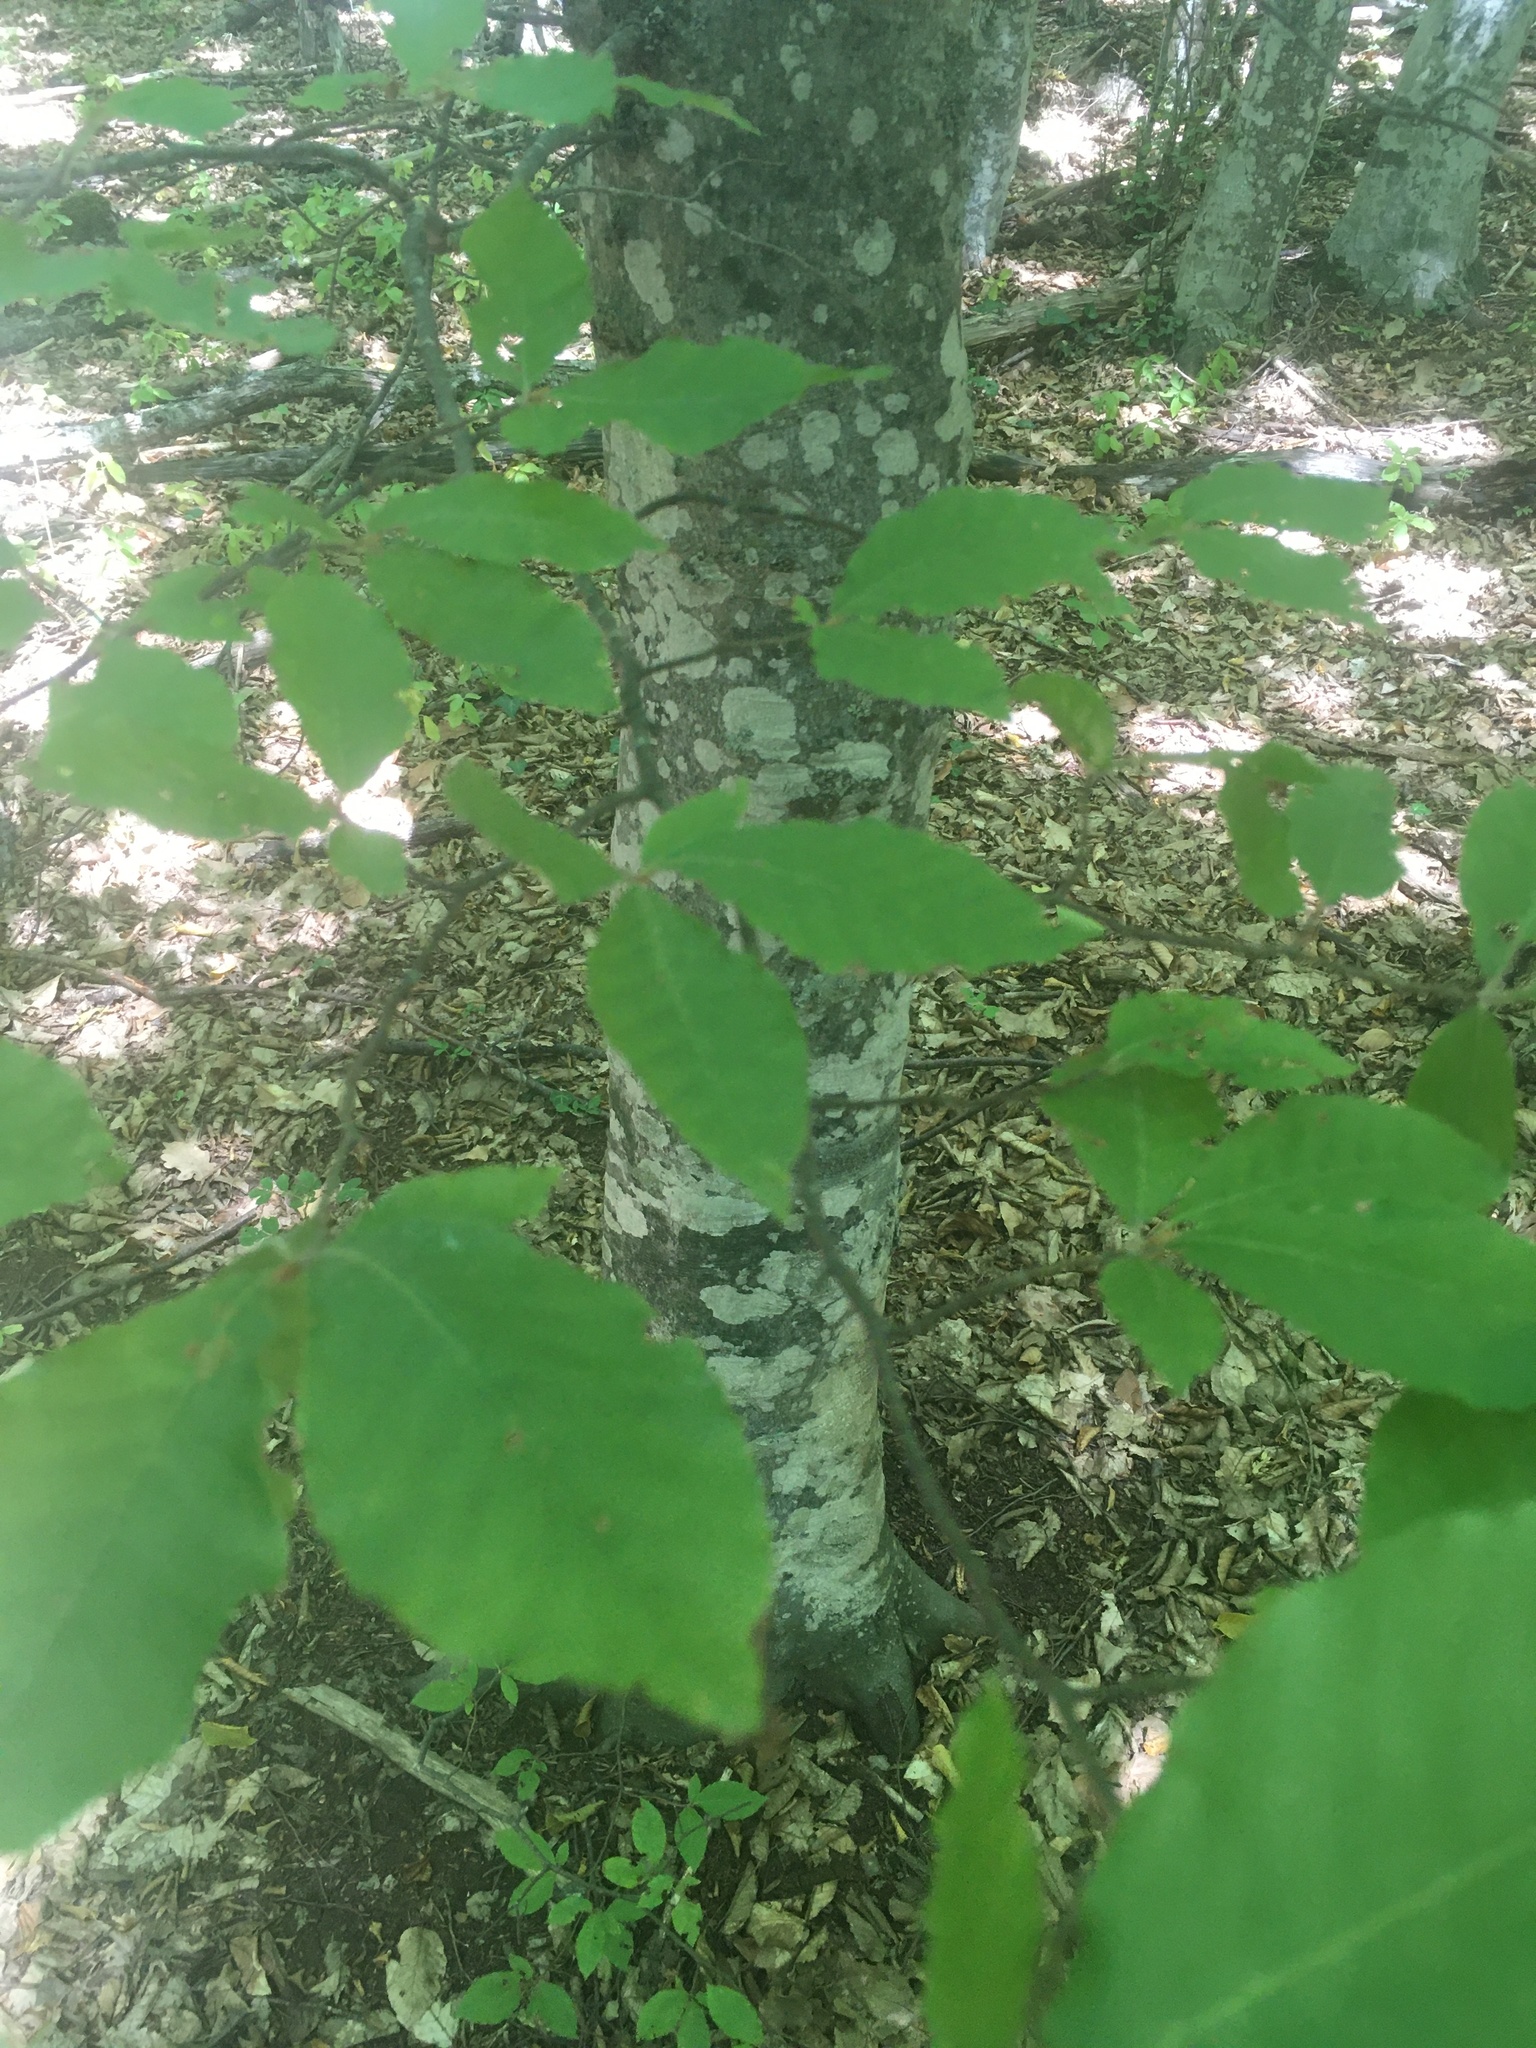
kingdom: Plantae
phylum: Tracheophyta
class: Magnoliopsida
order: Fagales
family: Fagaceae
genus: Fagus
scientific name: Fagus taurica
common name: Crimean beech
